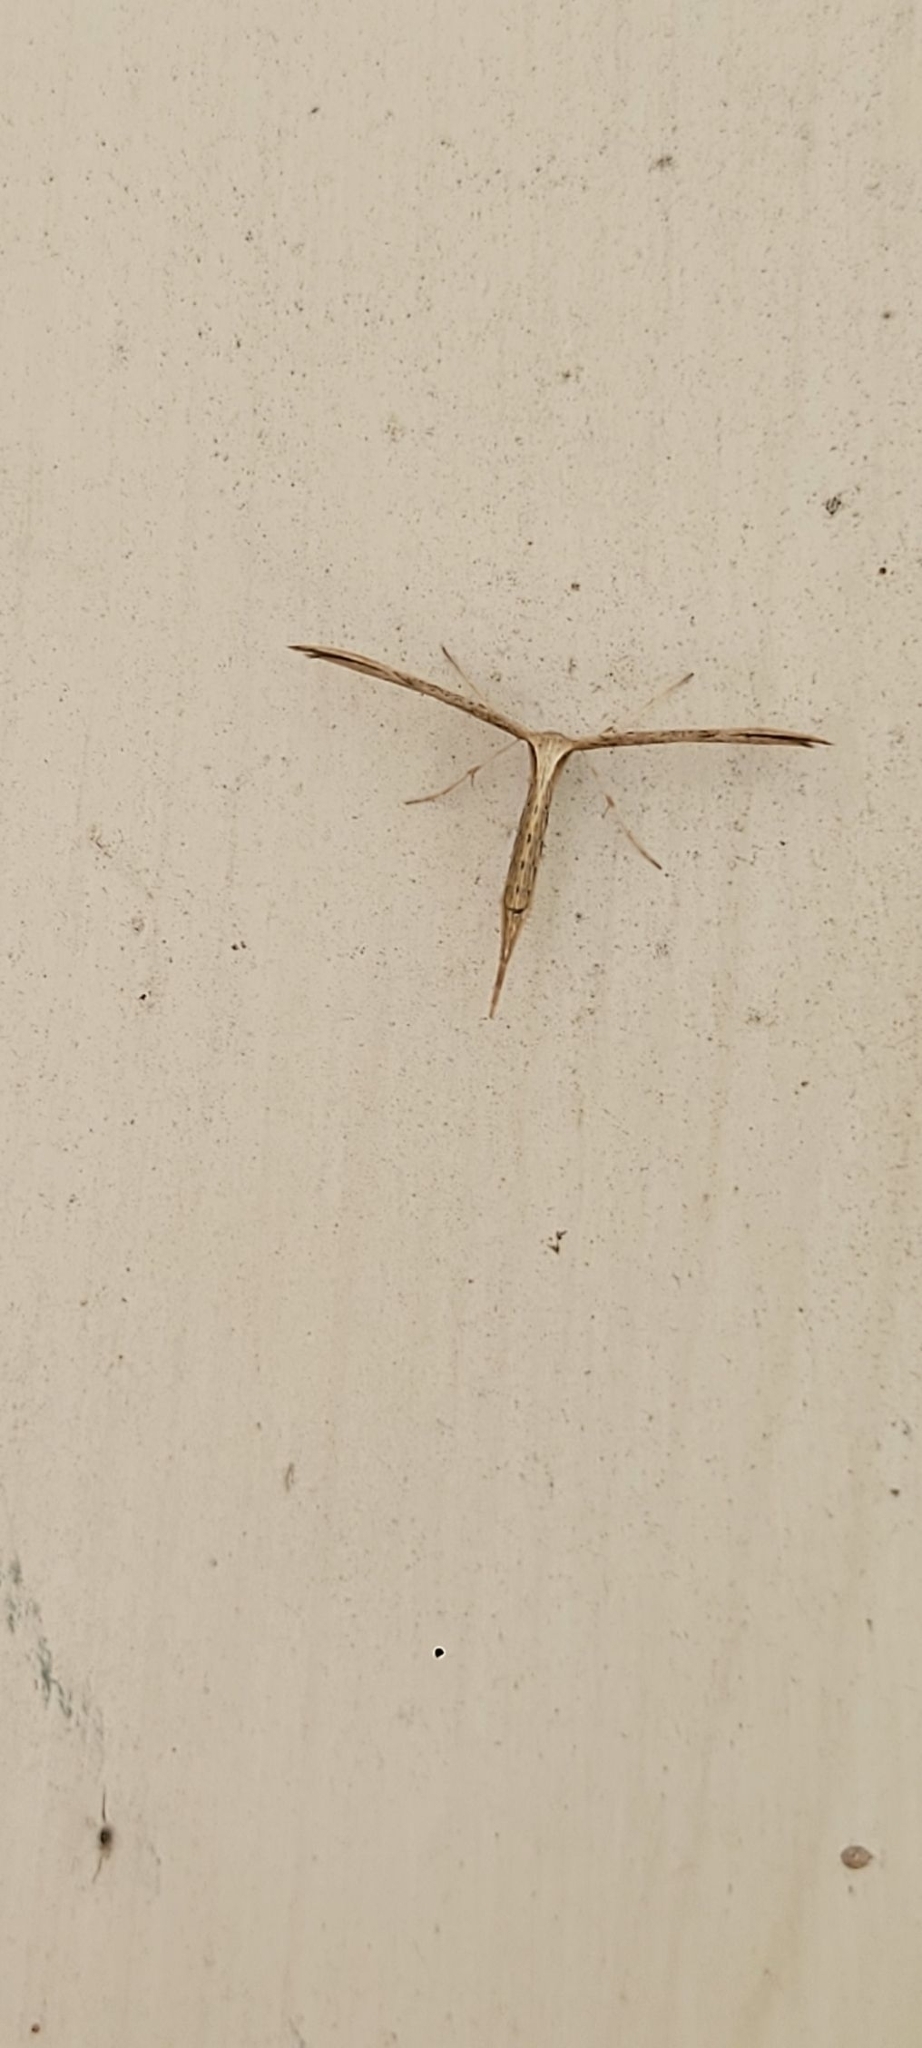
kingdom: Animalia
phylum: Arthropoda
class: Insecta
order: Lepidoptera
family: Pterophoridae
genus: Emmelina
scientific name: Emmelina monodactyla
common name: Common plume
